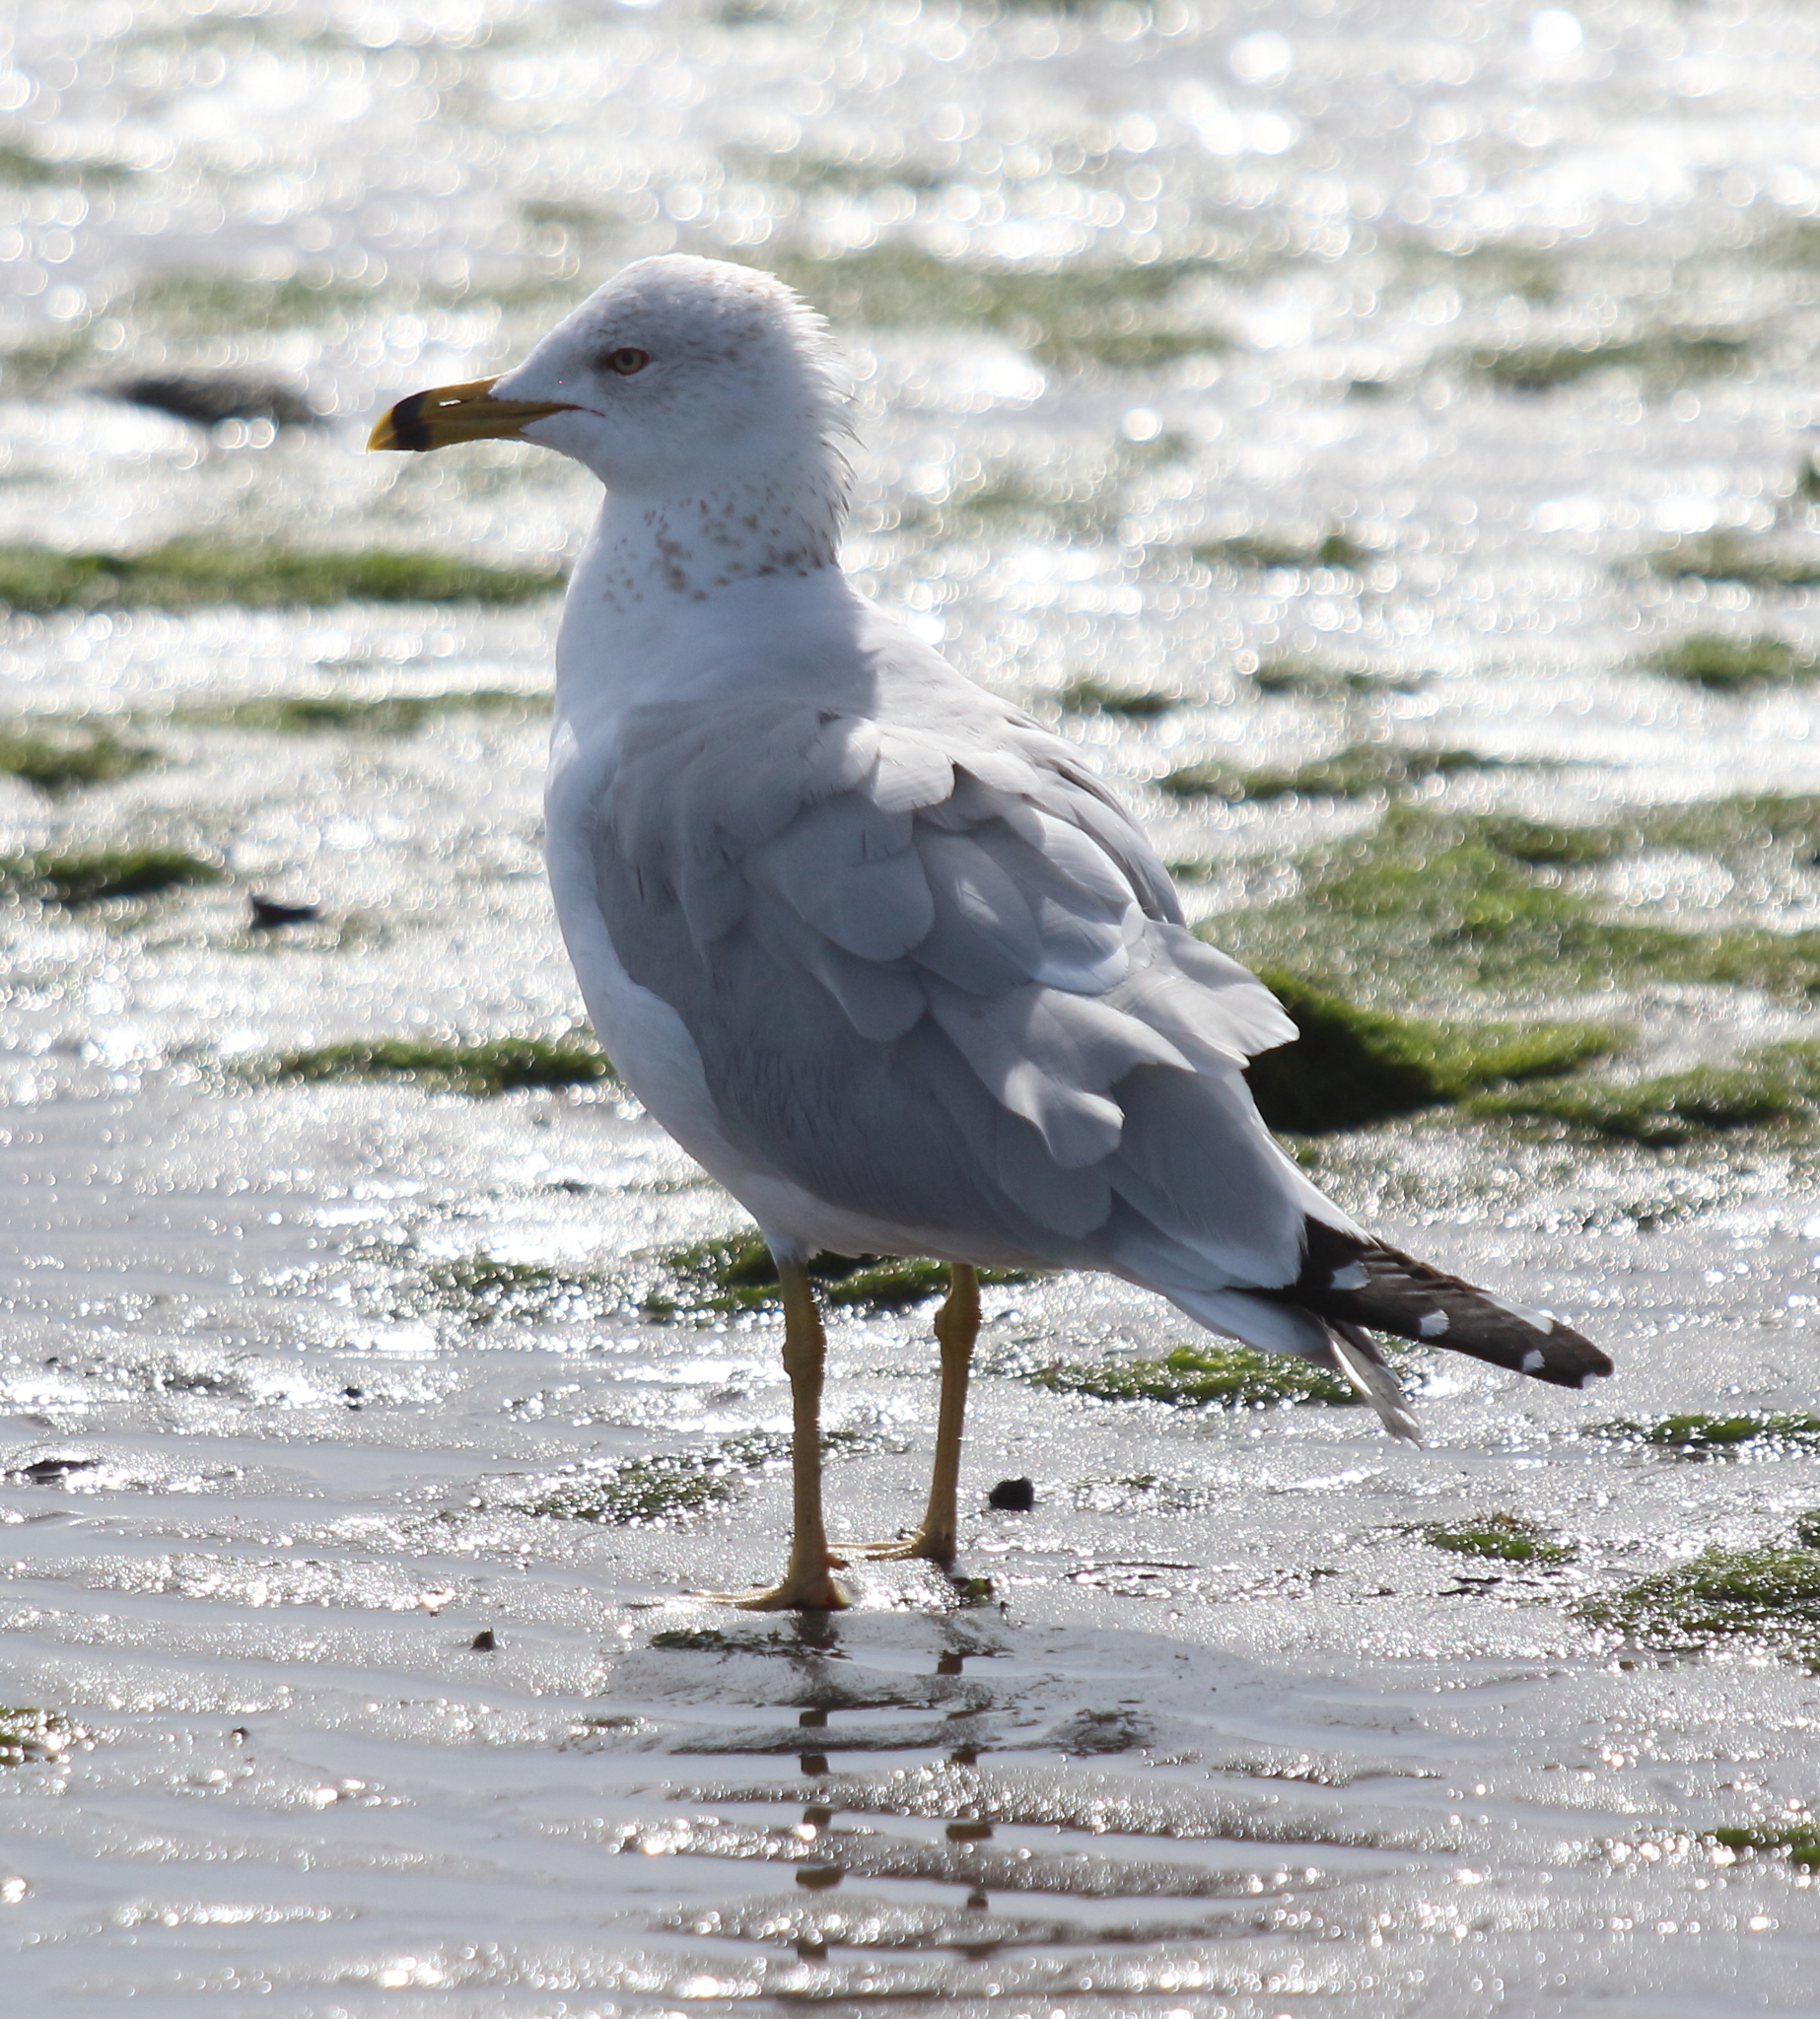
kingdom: Animalia
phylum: Chordata
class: Aves
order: Charadriiformes
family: Laridae
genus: Larus
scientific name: Larus delawarensis
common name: Ring-billed gull
